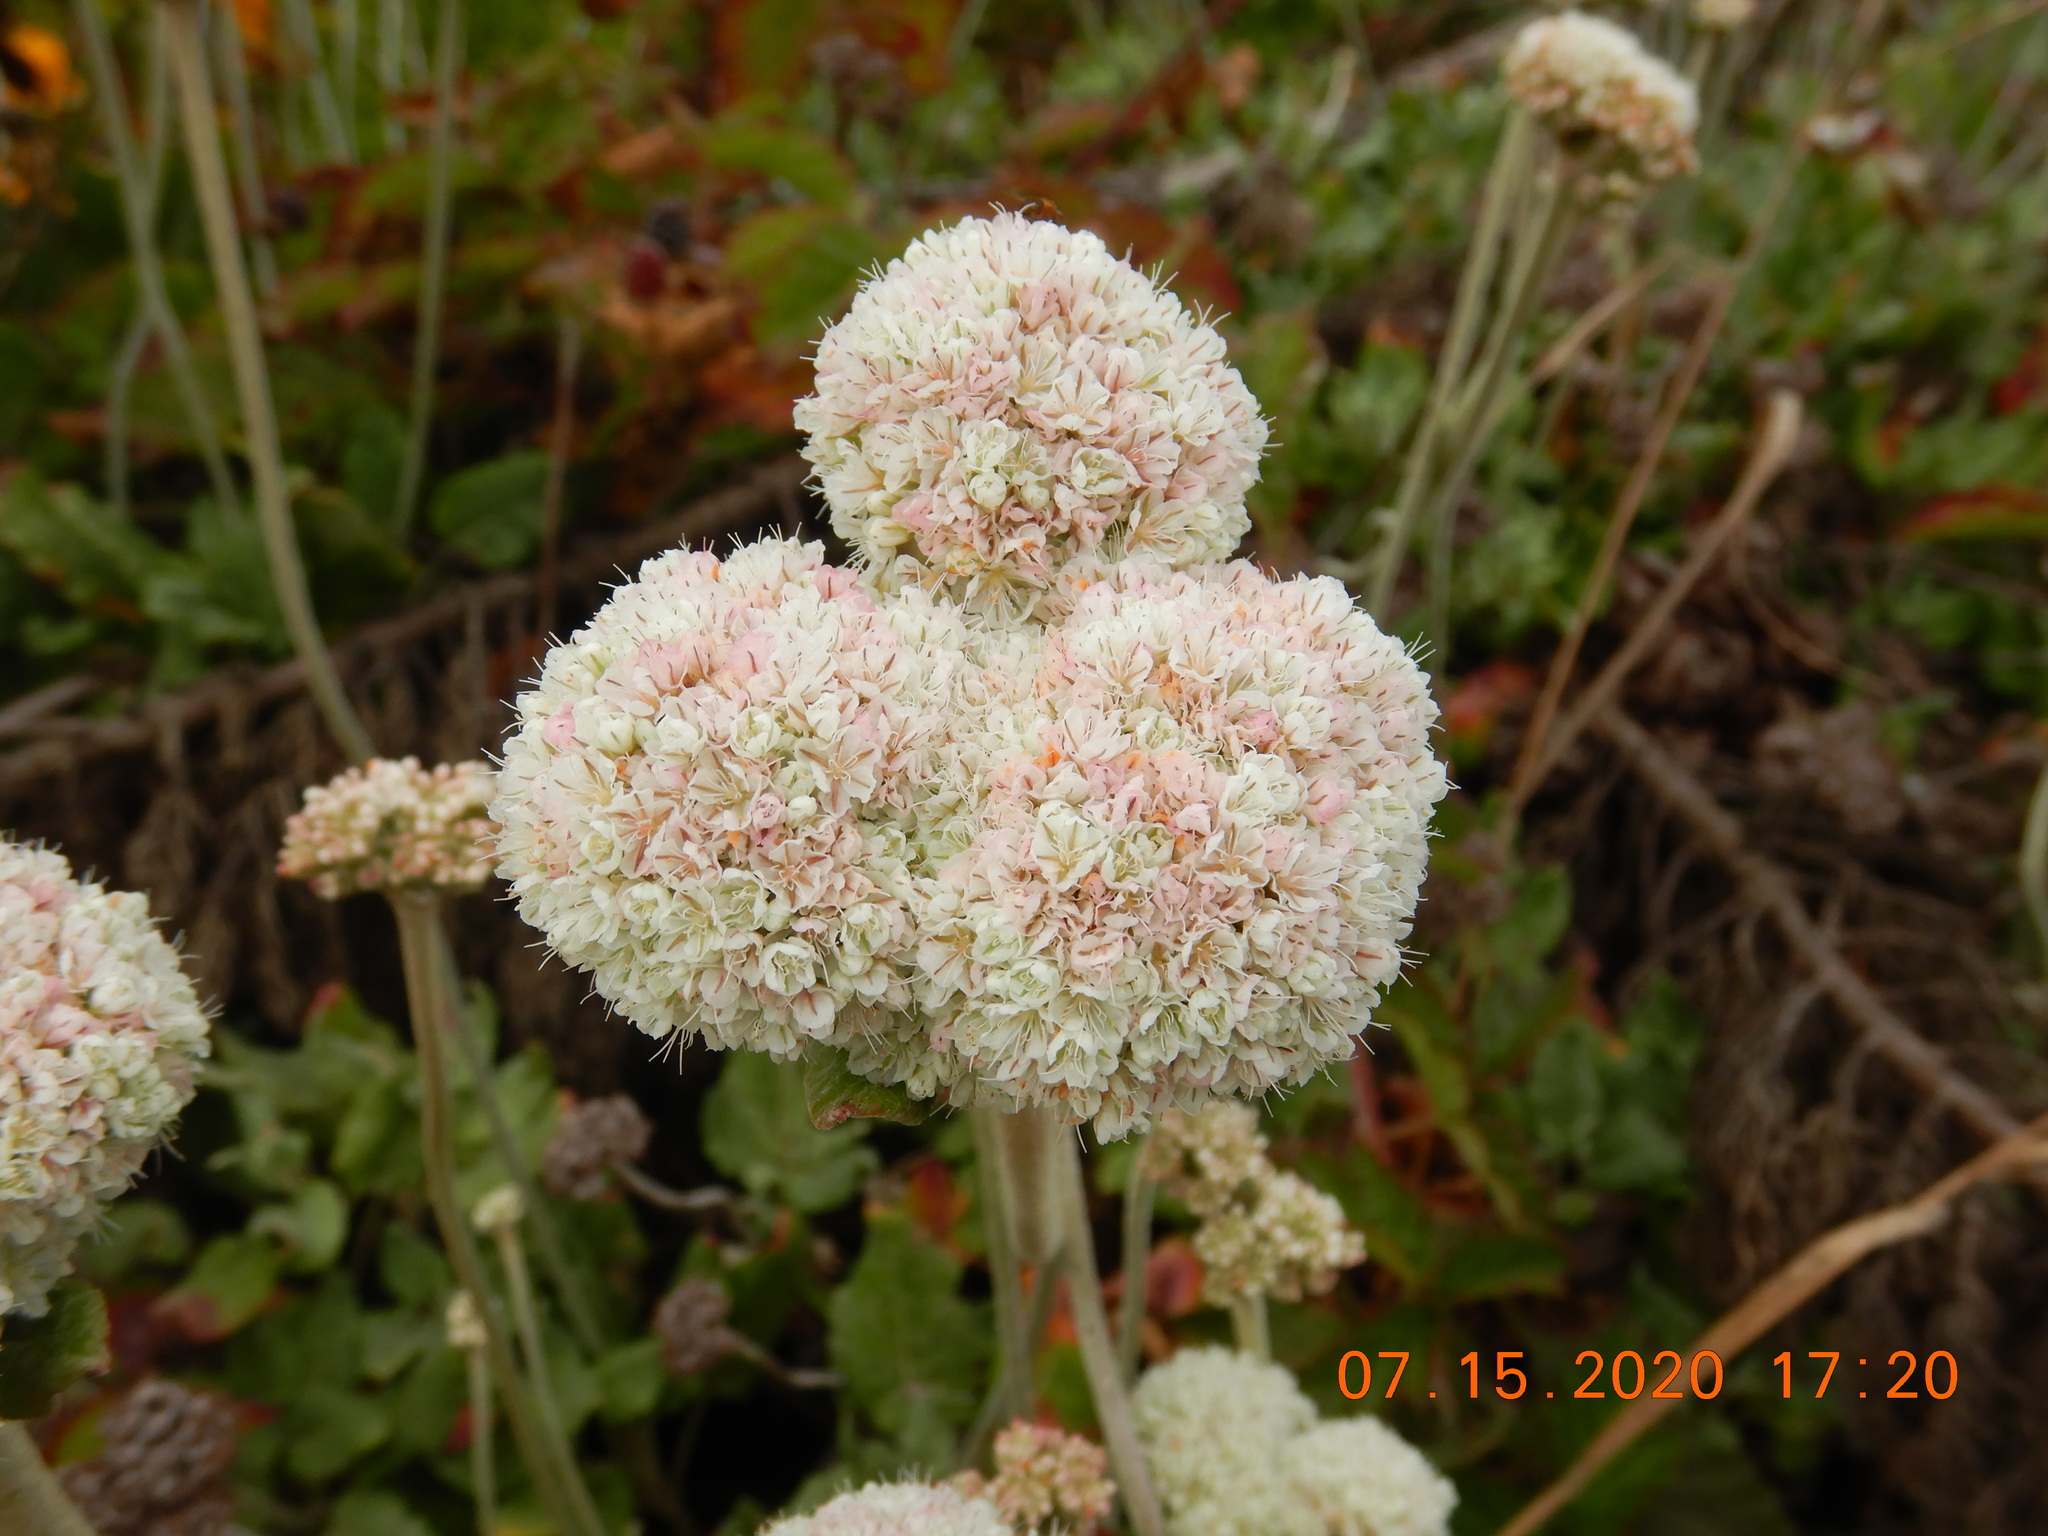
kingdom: Plantae
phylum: Tracheophyta
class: Magnoliopsida
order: Caryophyllales
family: Polygonaceae
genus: Eriogonum
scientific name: Eriogonum latifolium
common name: Seaside wild buckwheat
